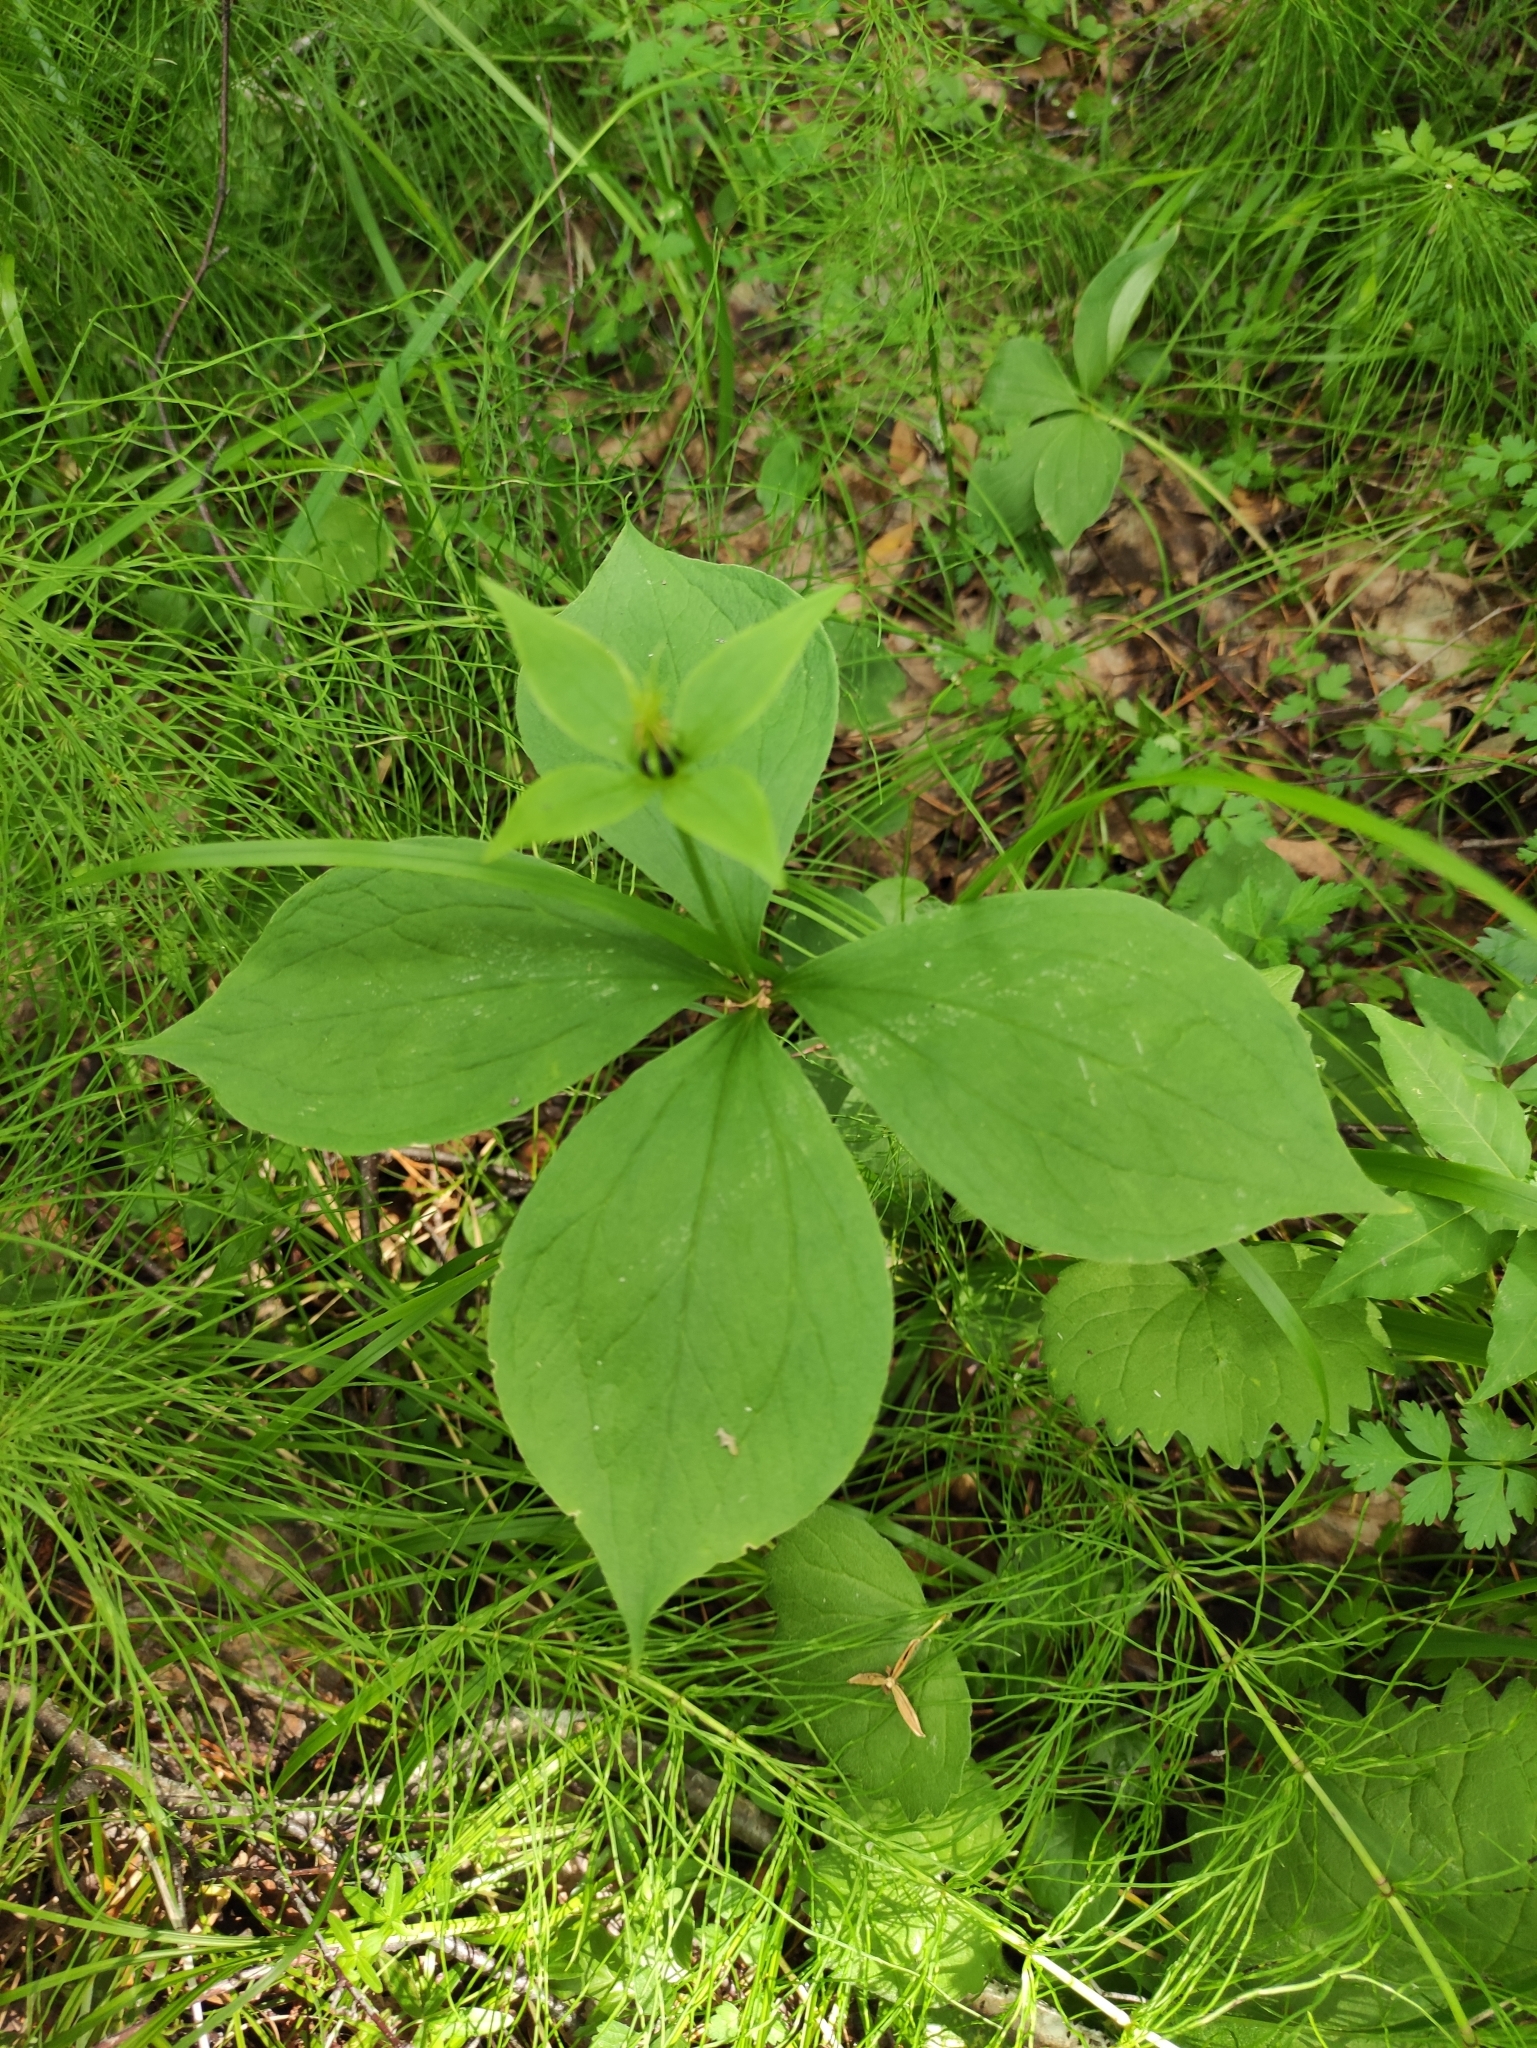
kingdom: Plantae
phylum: Tracheophyta
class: Liliopsida
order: Liliales
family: Melanthiaceae
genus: Paris
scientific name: Paris quadrifolia
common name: Herb-paris
